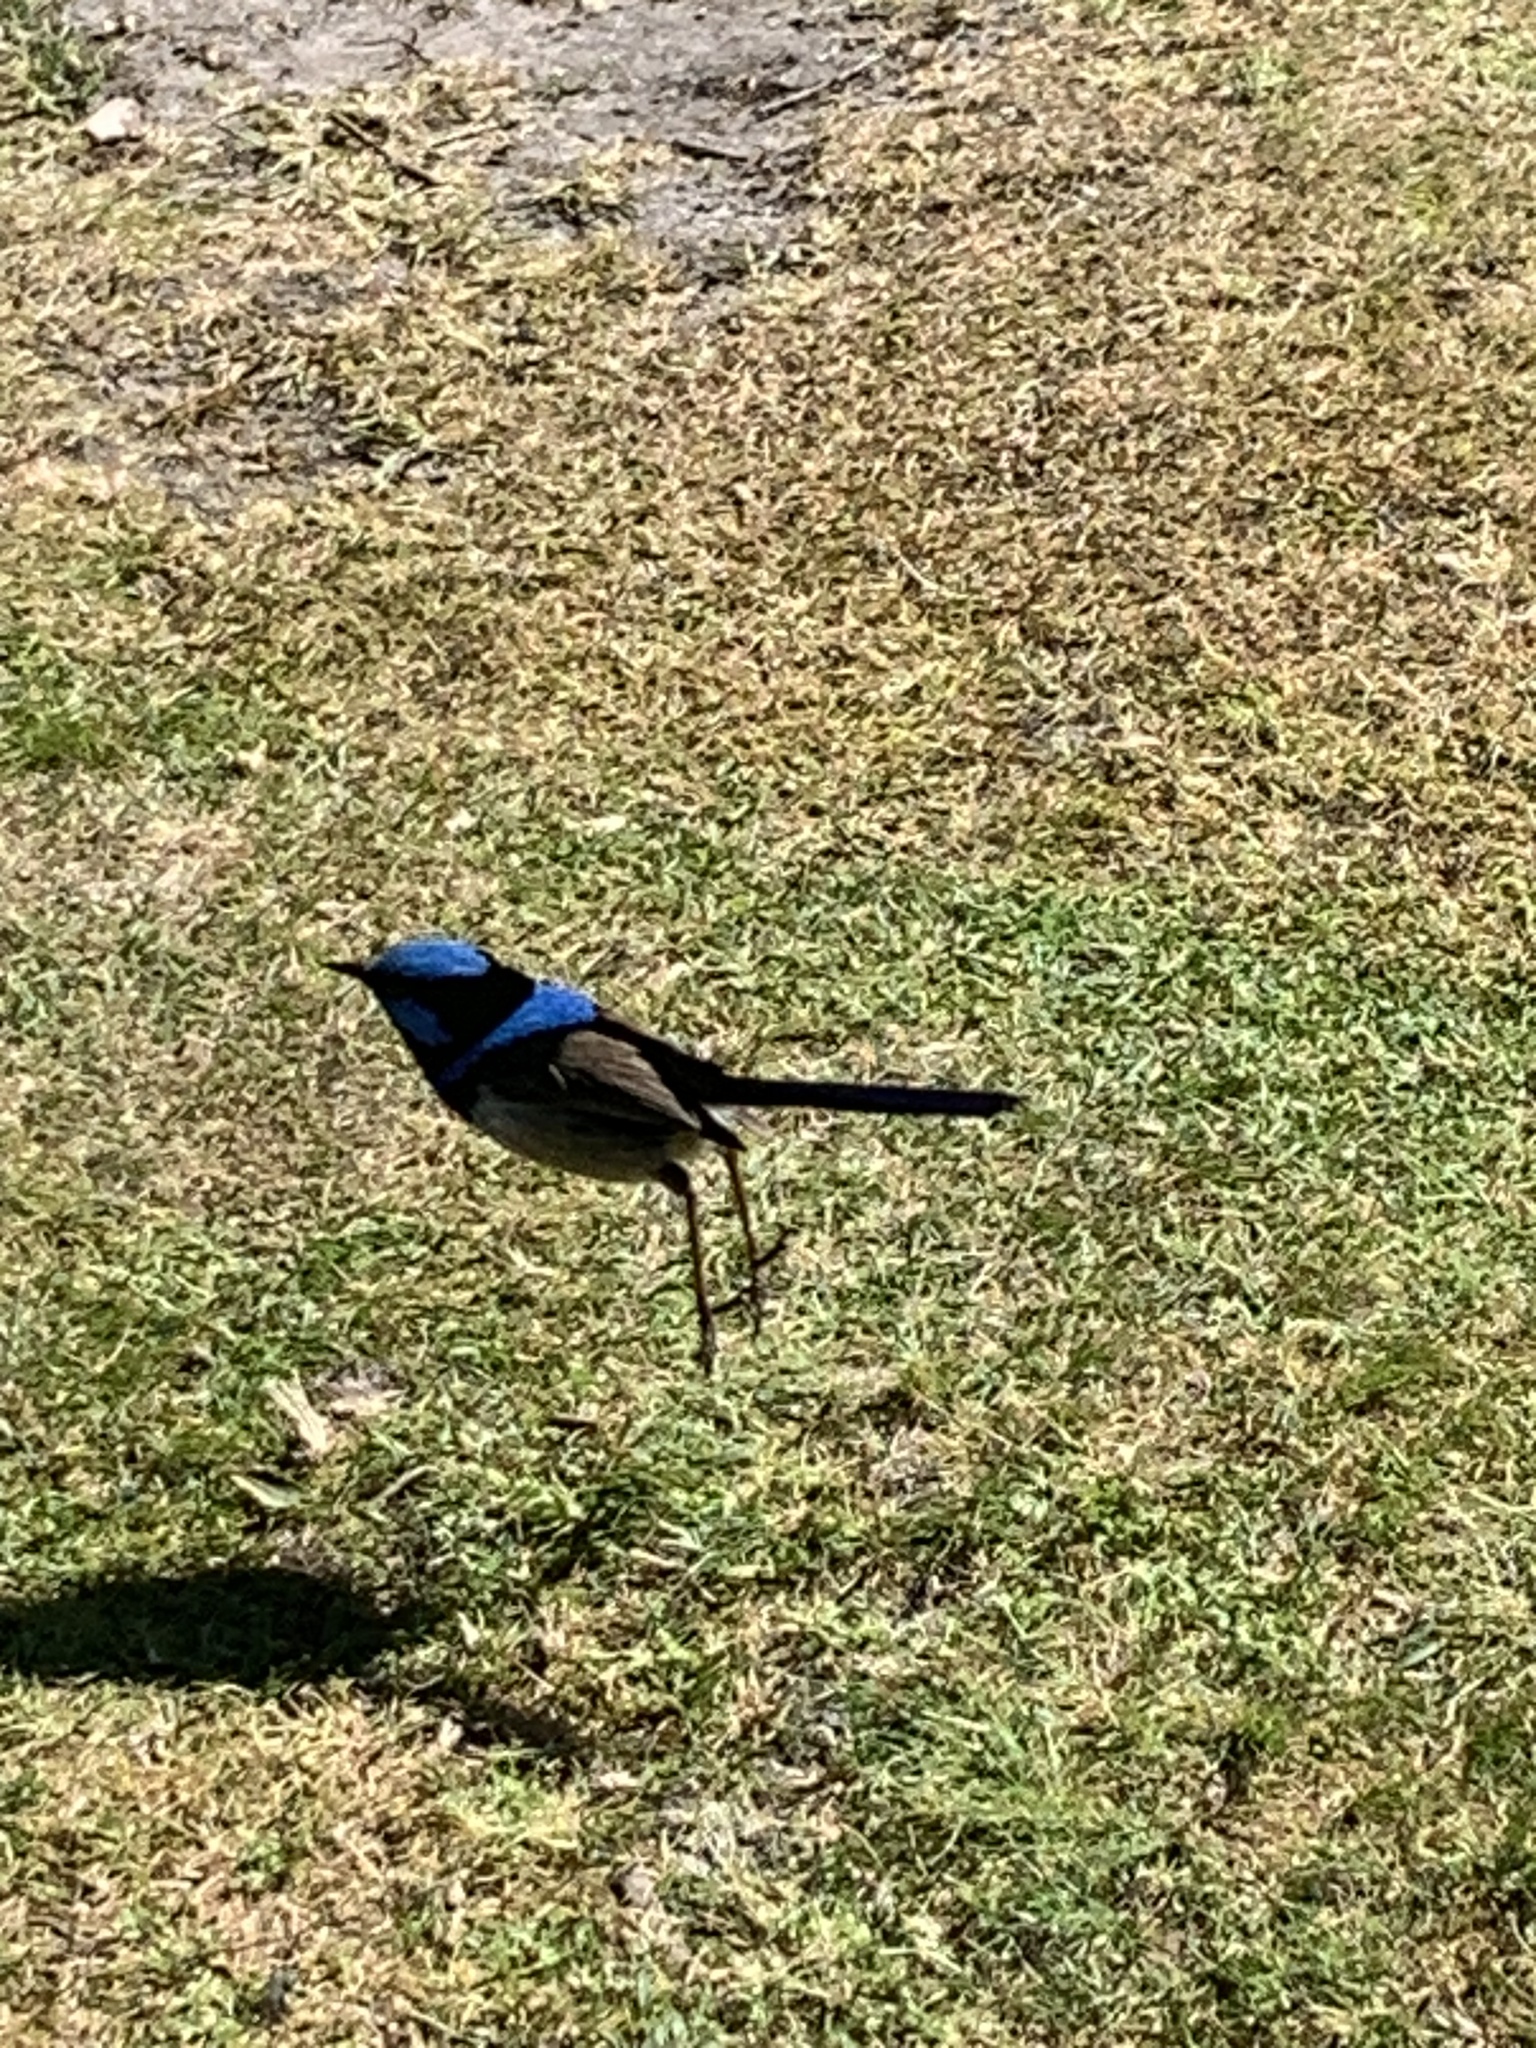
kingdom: Animalia
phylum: Chordata
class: Aves
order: Passeriformes
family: Maluridae
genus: Malurus
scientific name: Malurus cyaneus
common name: Superb fairywren
